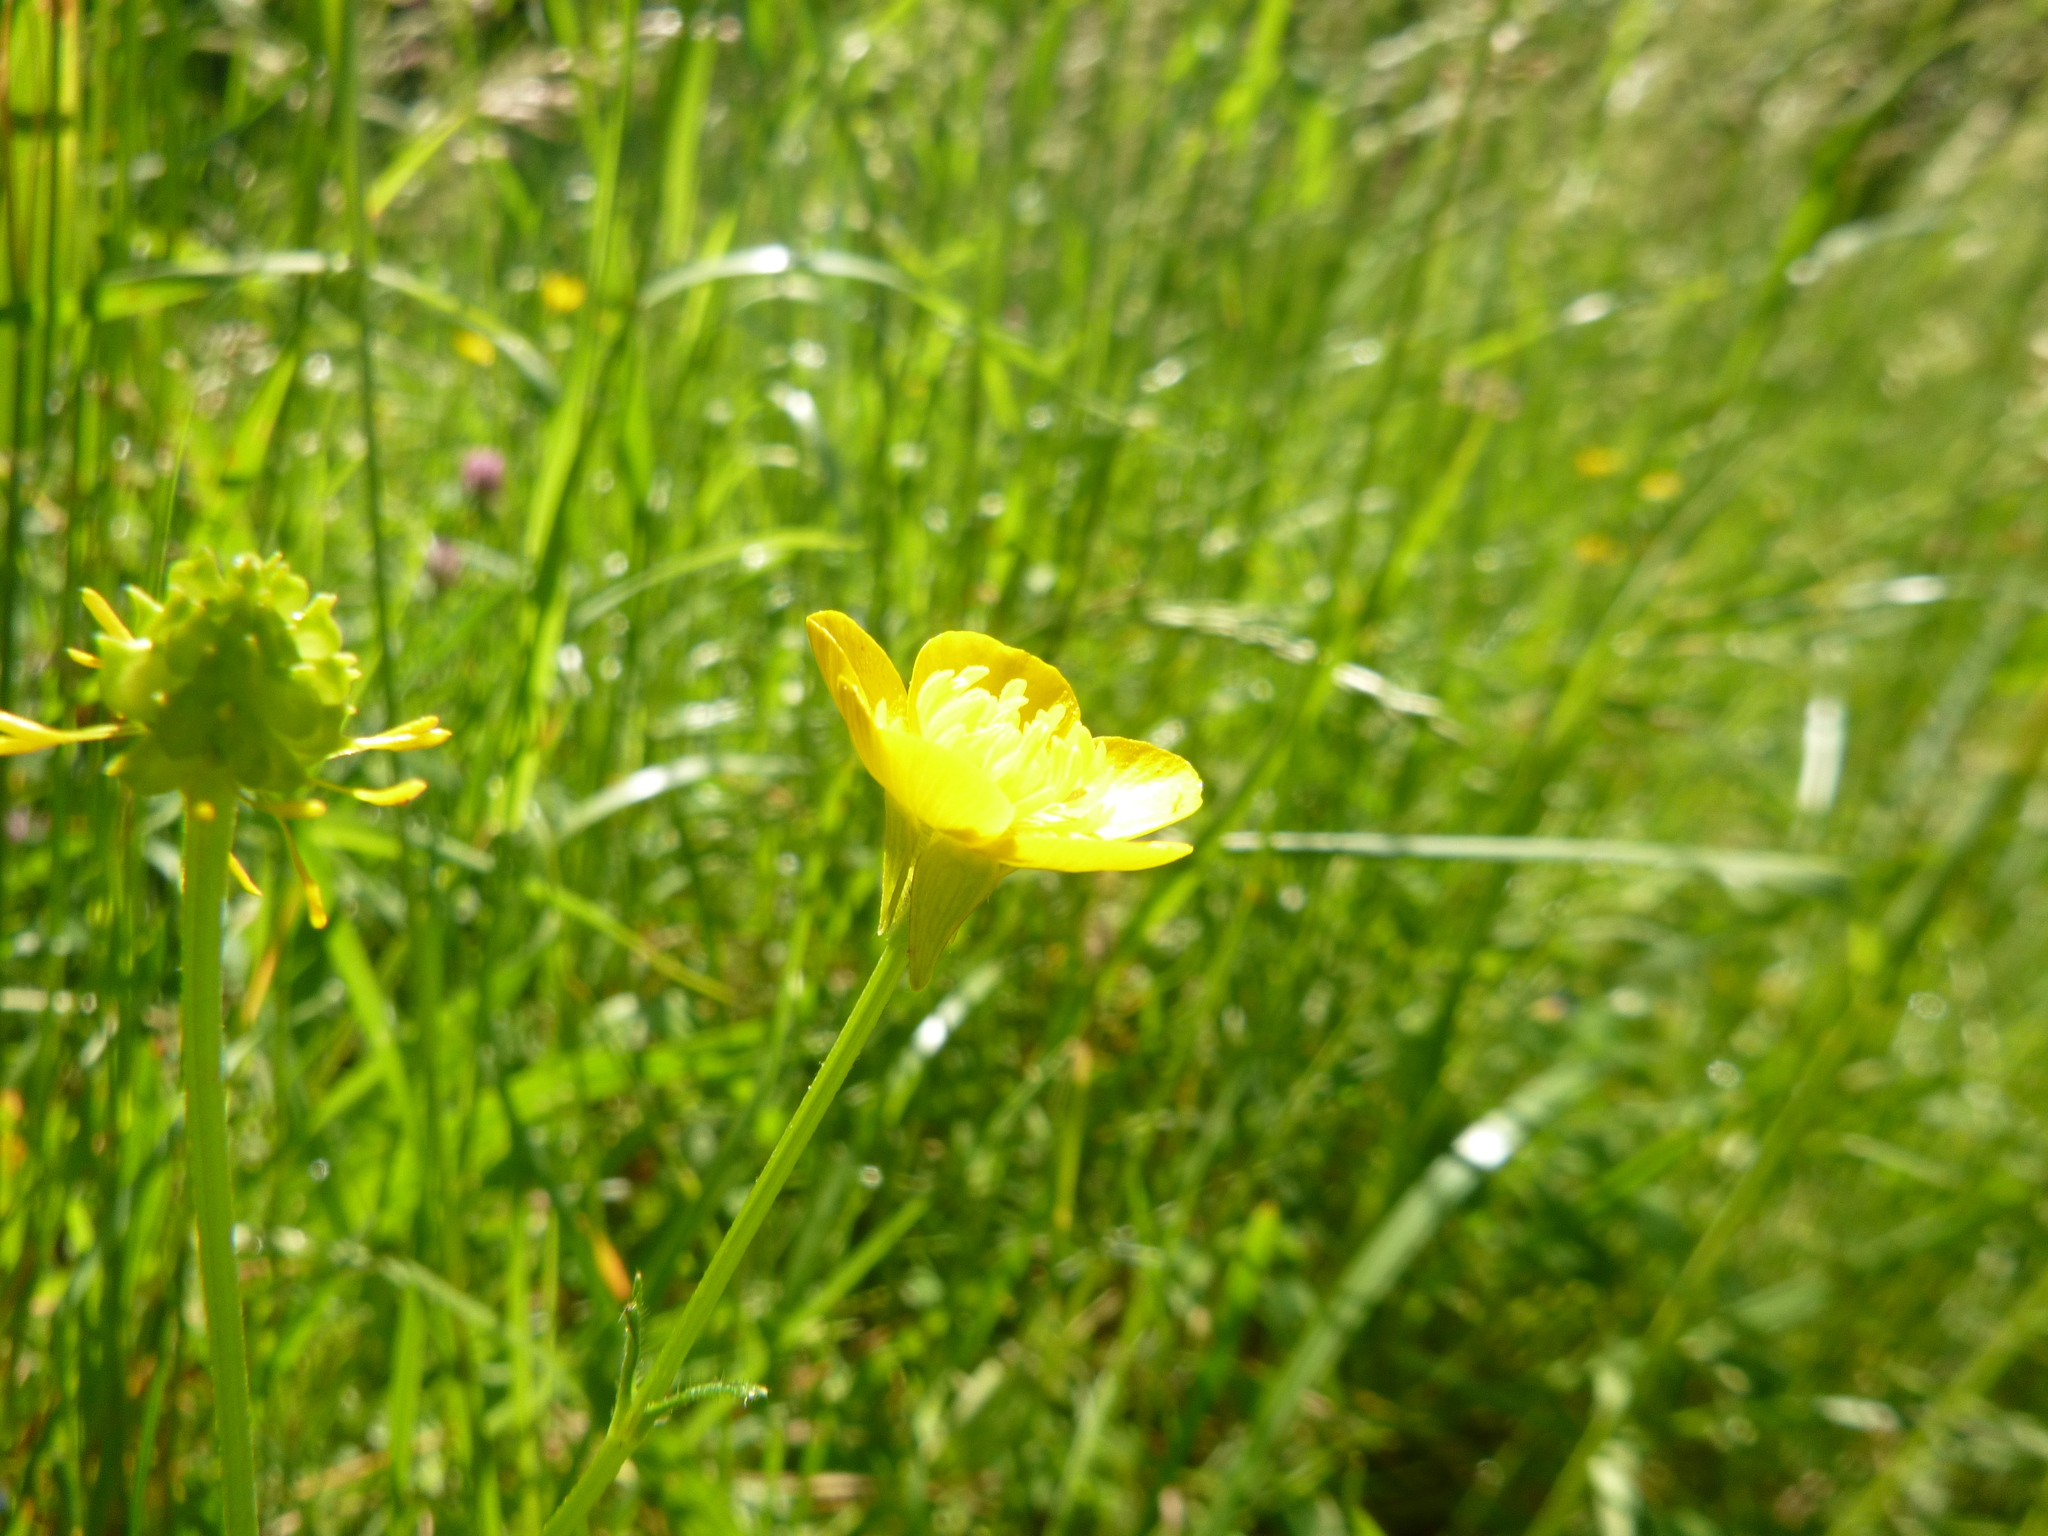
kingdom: Plantae
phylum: Tracheophyta
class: Magnoliopsida
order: Ranunculales
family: Ranunculaceae
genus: Ranunculus
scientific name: Ranunculus bulbosus
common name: Bulbous buttercup
